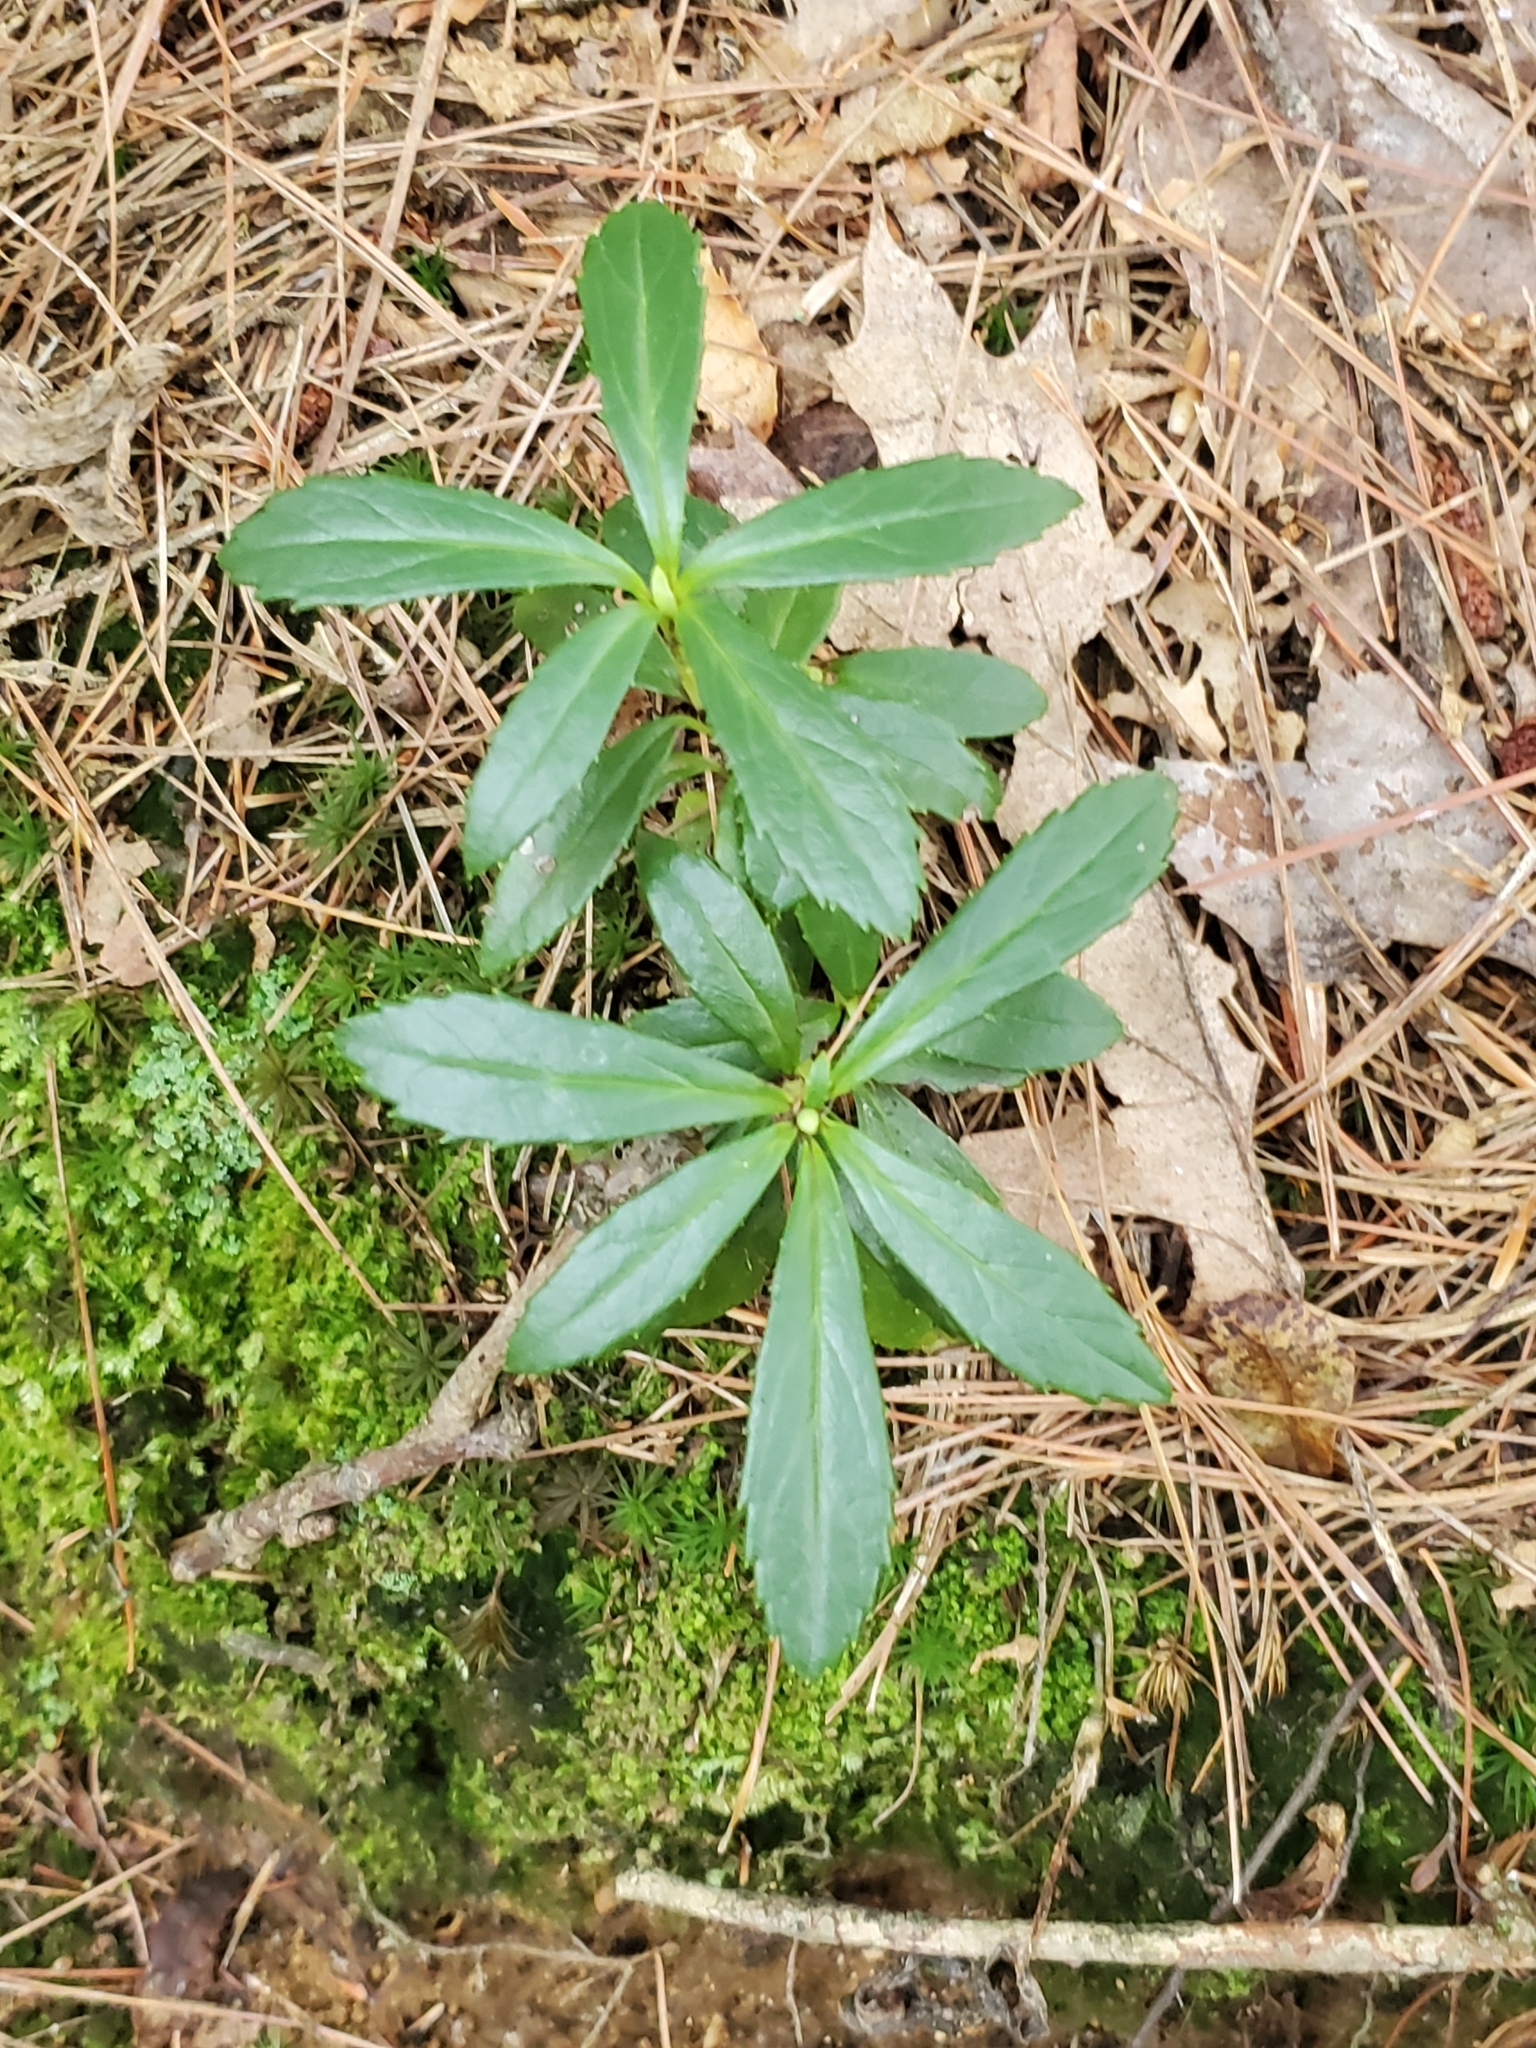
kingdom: Plantae
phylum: Tracheophyta
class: Magnoliopsida
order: Ericales
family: Ericaceae
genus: Chimaphila
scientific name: Chimaphila umbellata
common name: Pipsissewa
